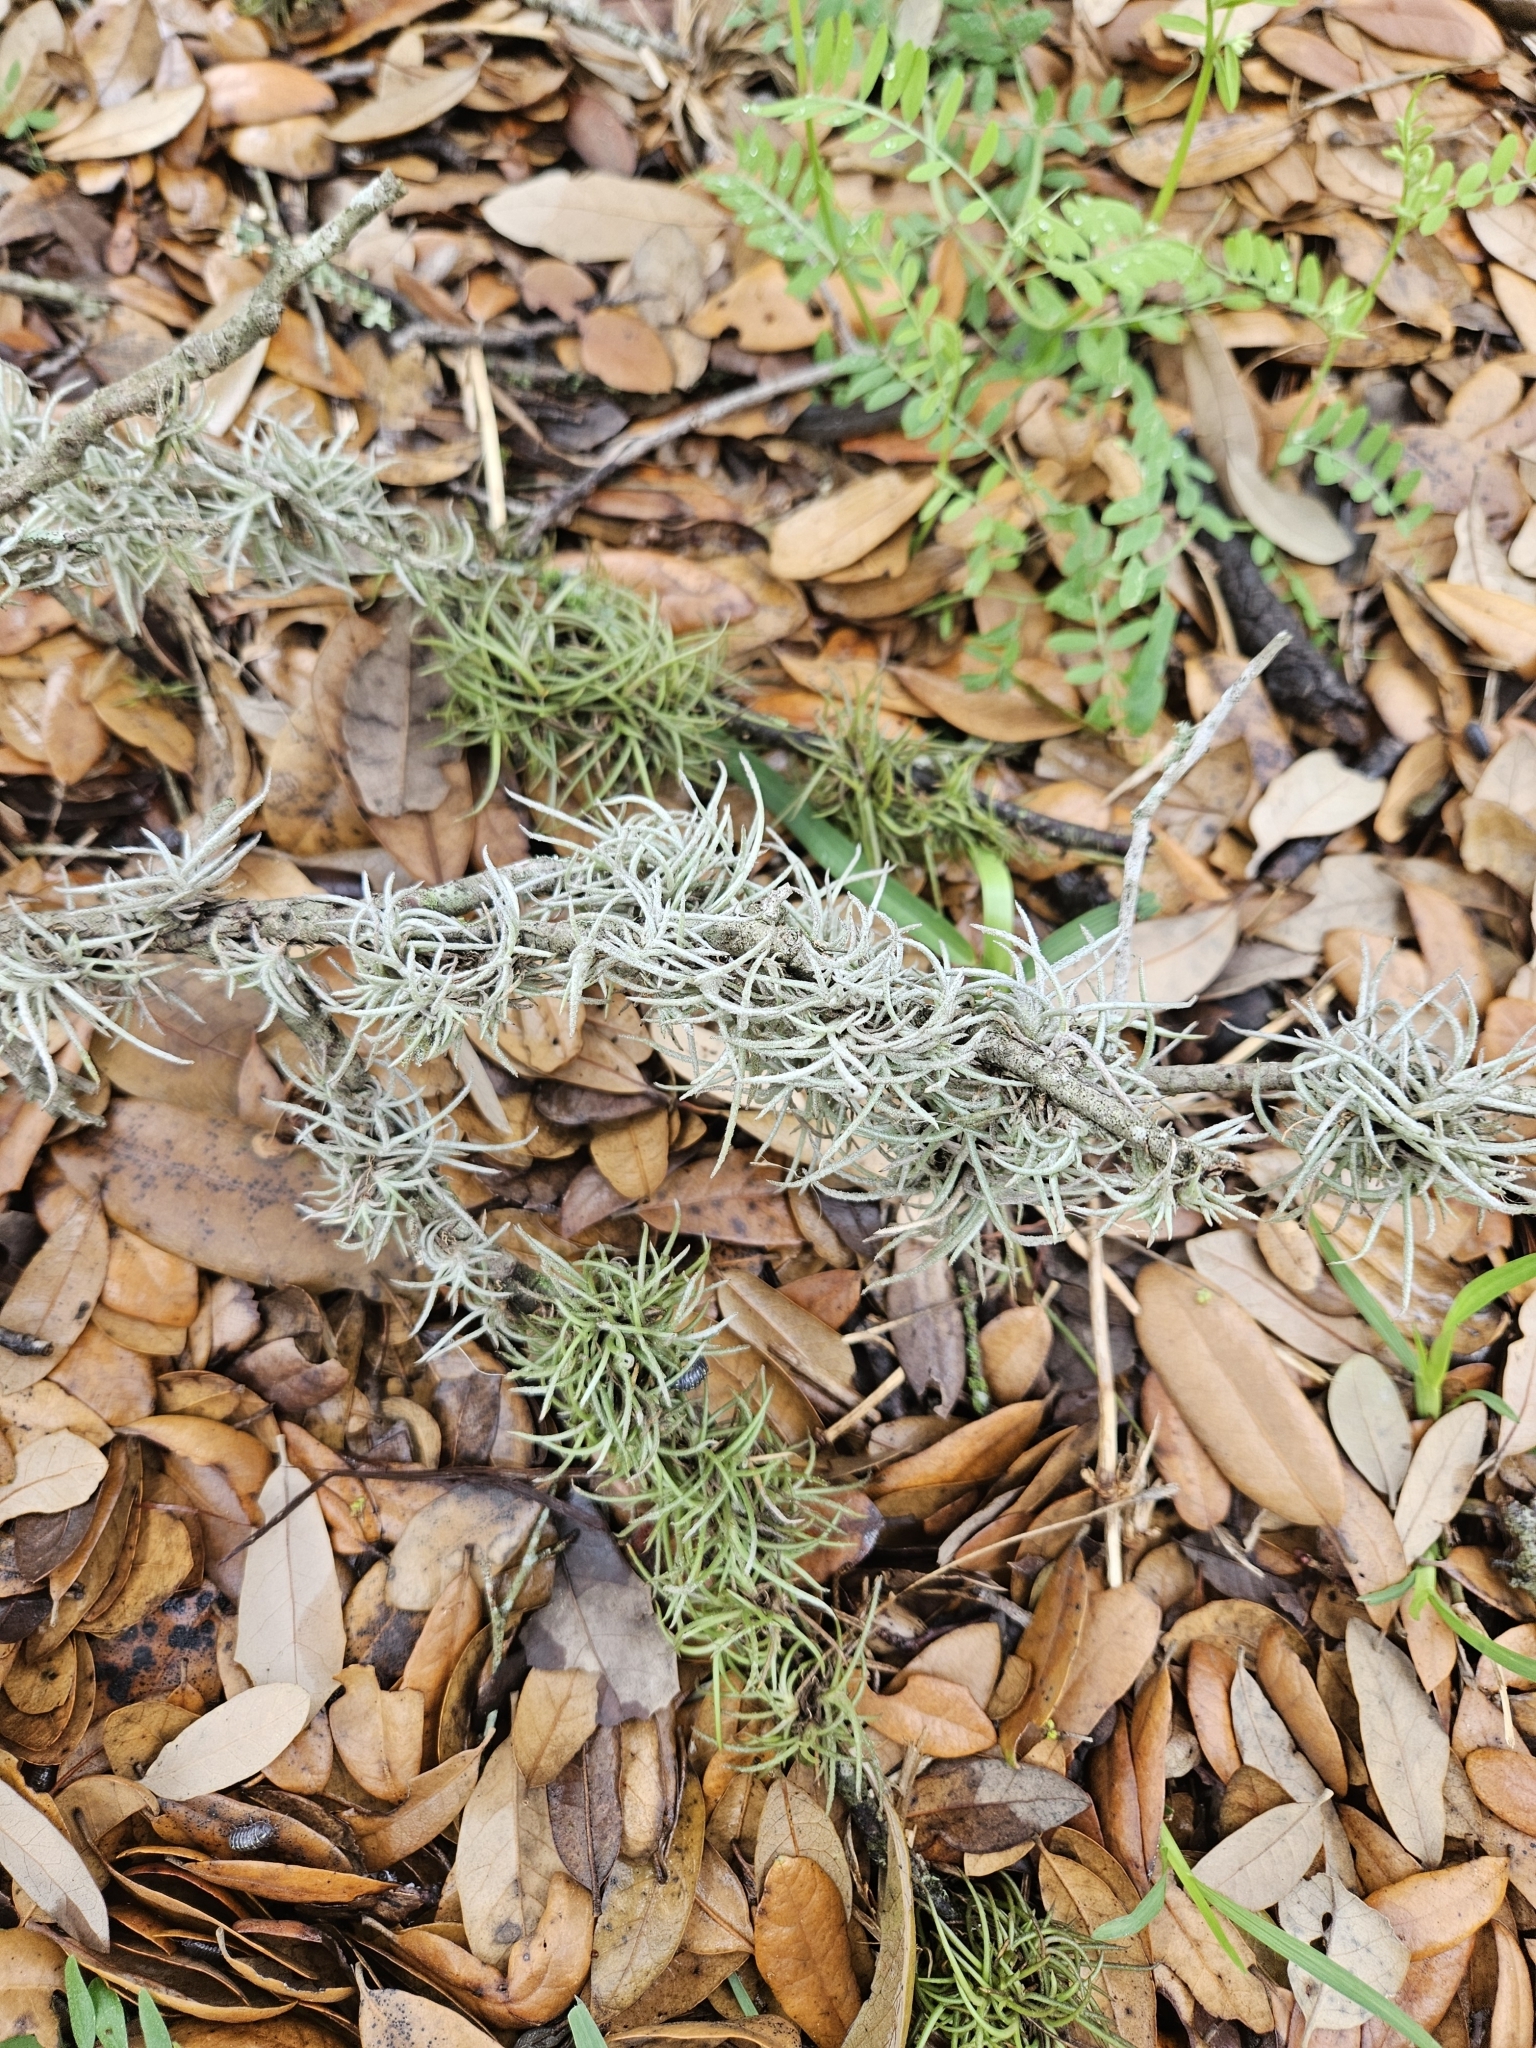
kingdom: Plantae
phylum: Tracheophyta
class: Liliopsida
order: Poales
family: Bromeliaceae
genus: Tillandsia
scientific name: Tillandsia recurvata
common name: Small ballmoss
